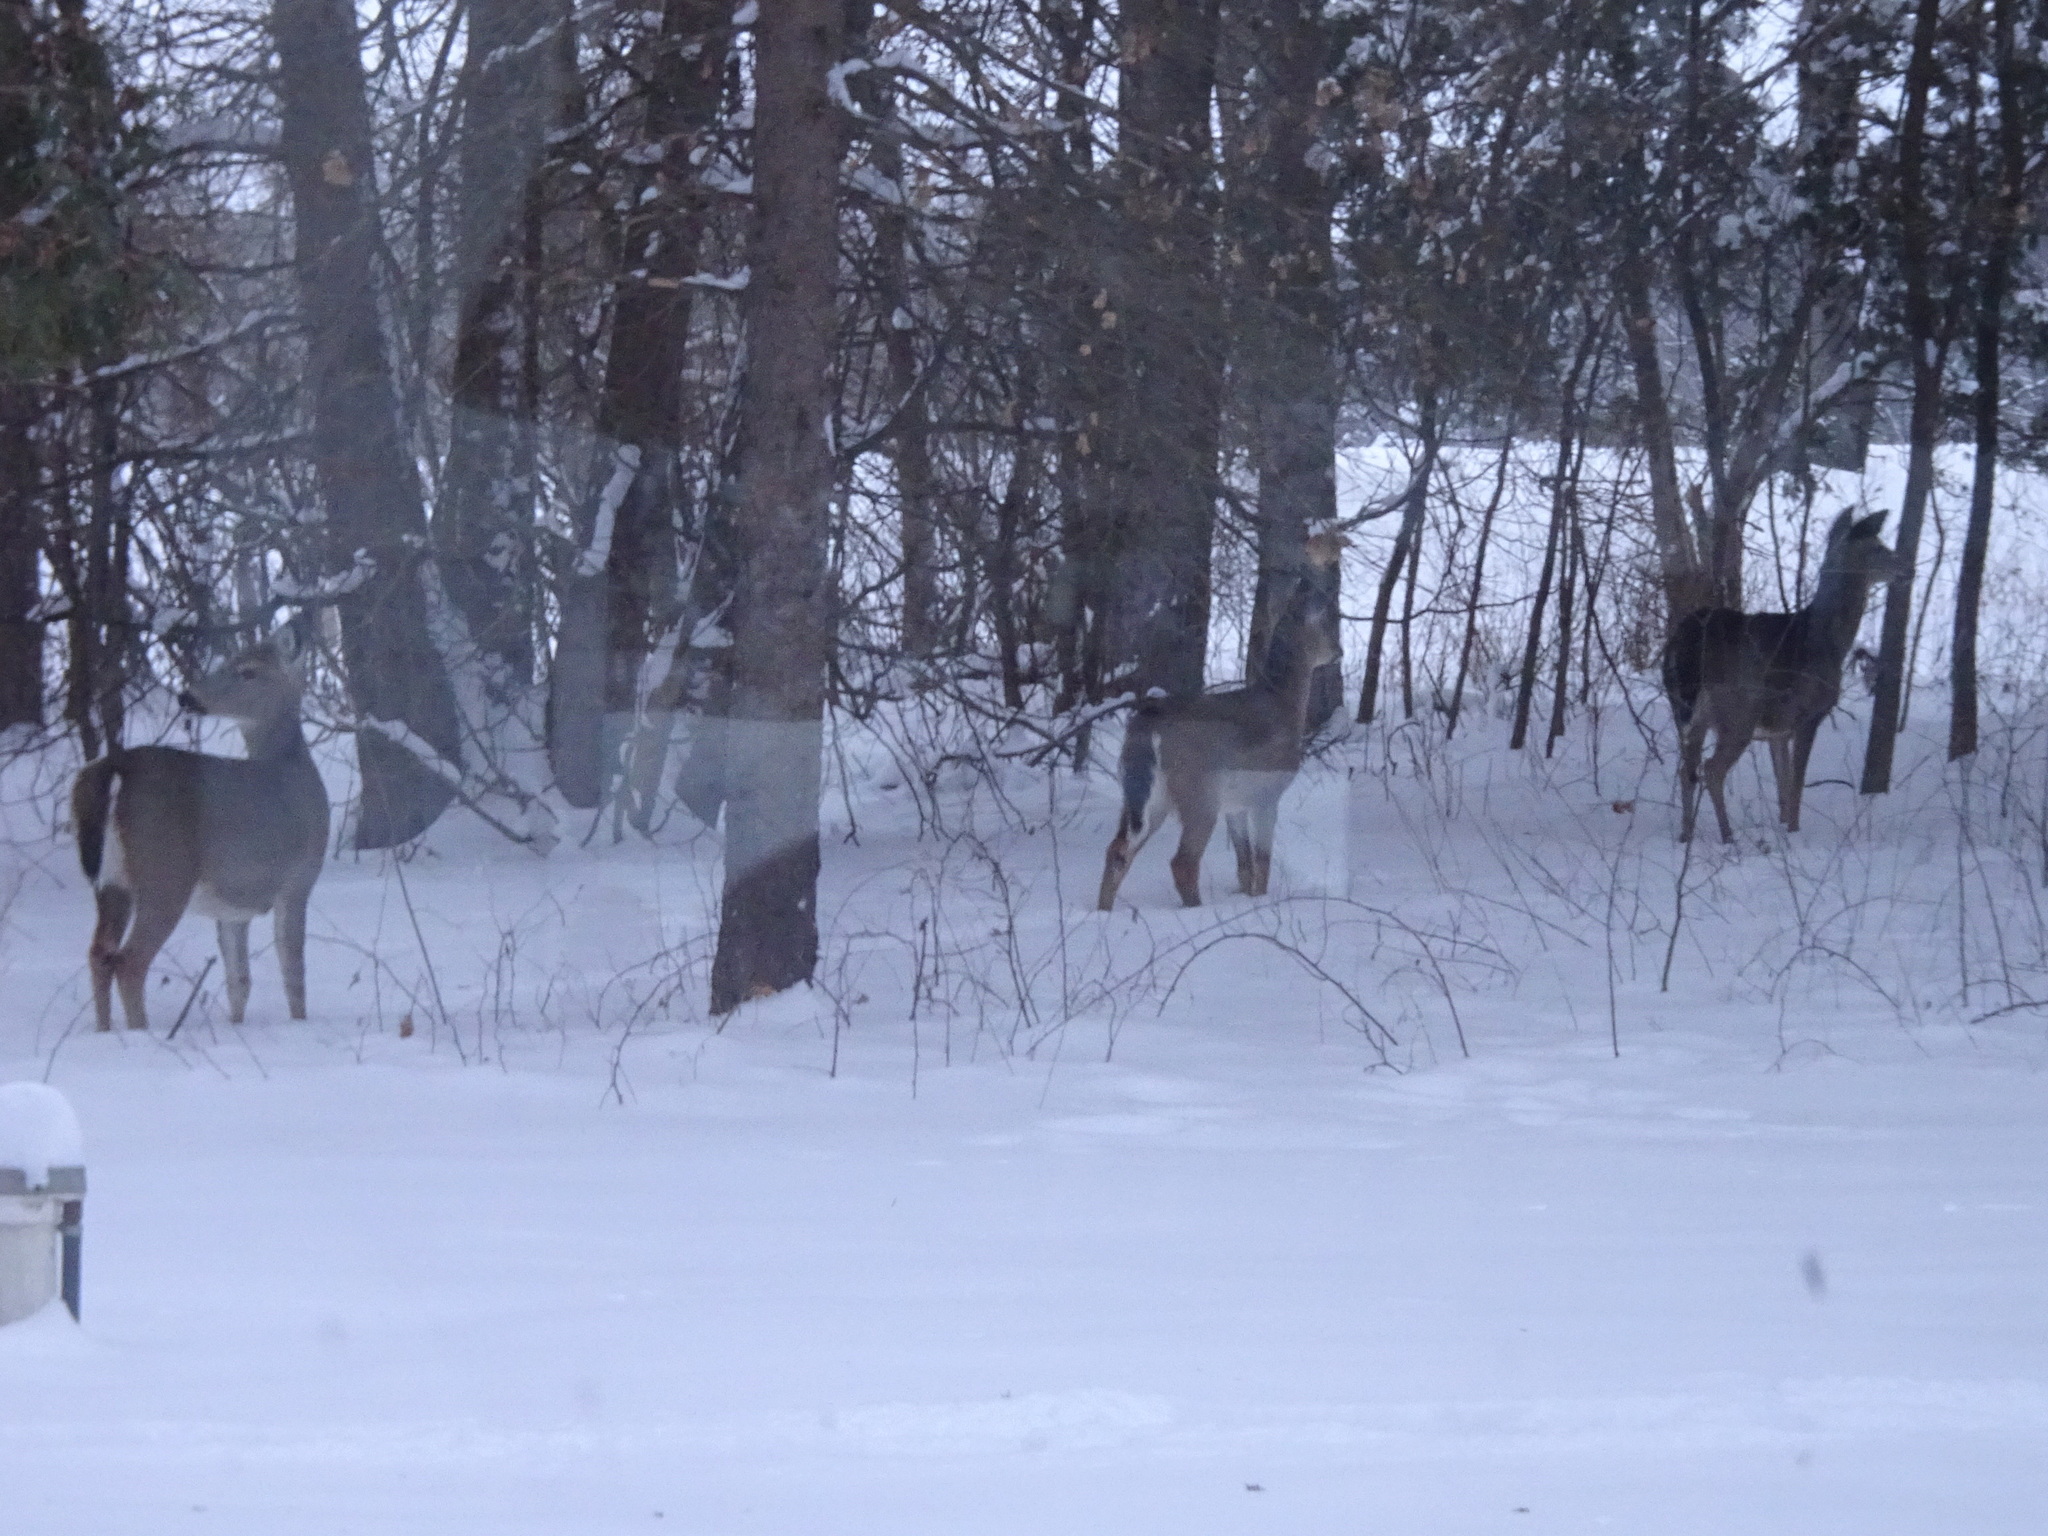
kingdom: Animalia
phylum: Chordata
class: Mammalia
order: Artiodactyla
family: Cervidae
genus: Odocoileus
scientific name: Odocoileus virginianus
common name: White-tailed deer
